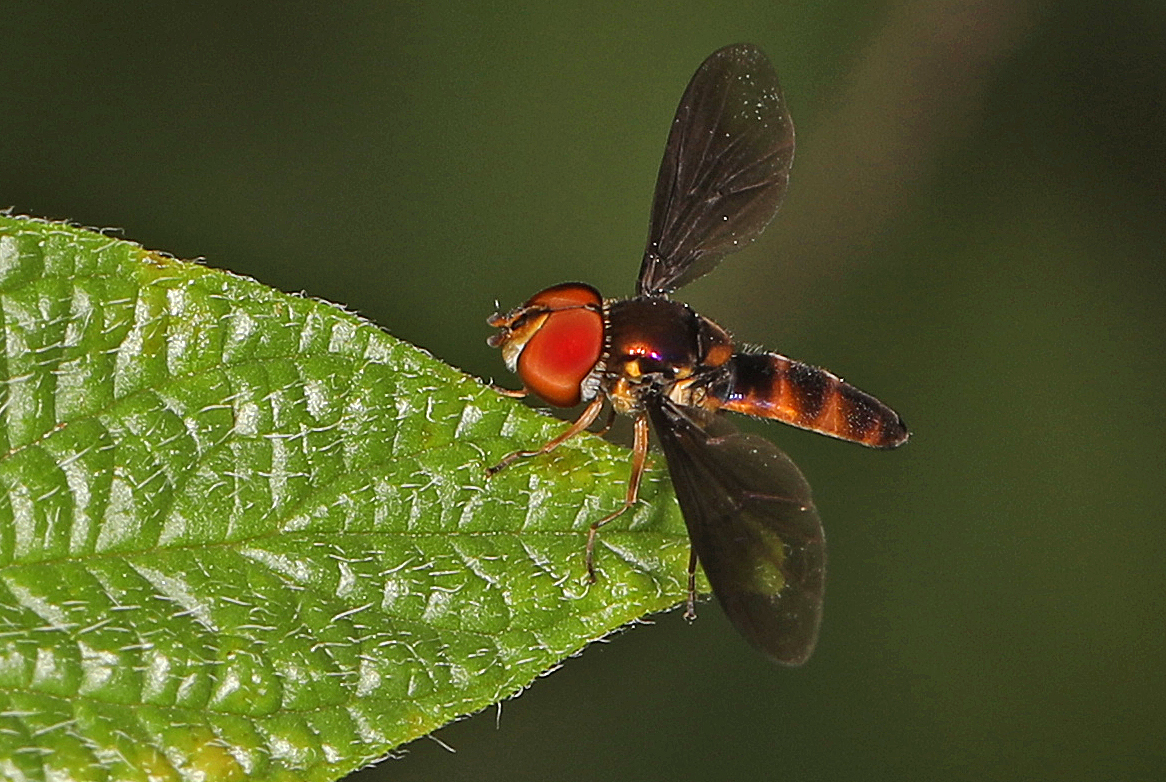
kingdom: Animalia
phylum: Arthropoda
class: Insecta
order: Diptera
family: Syrphidae
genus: Ocyptamus
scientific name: Ocyptamus antiphates
